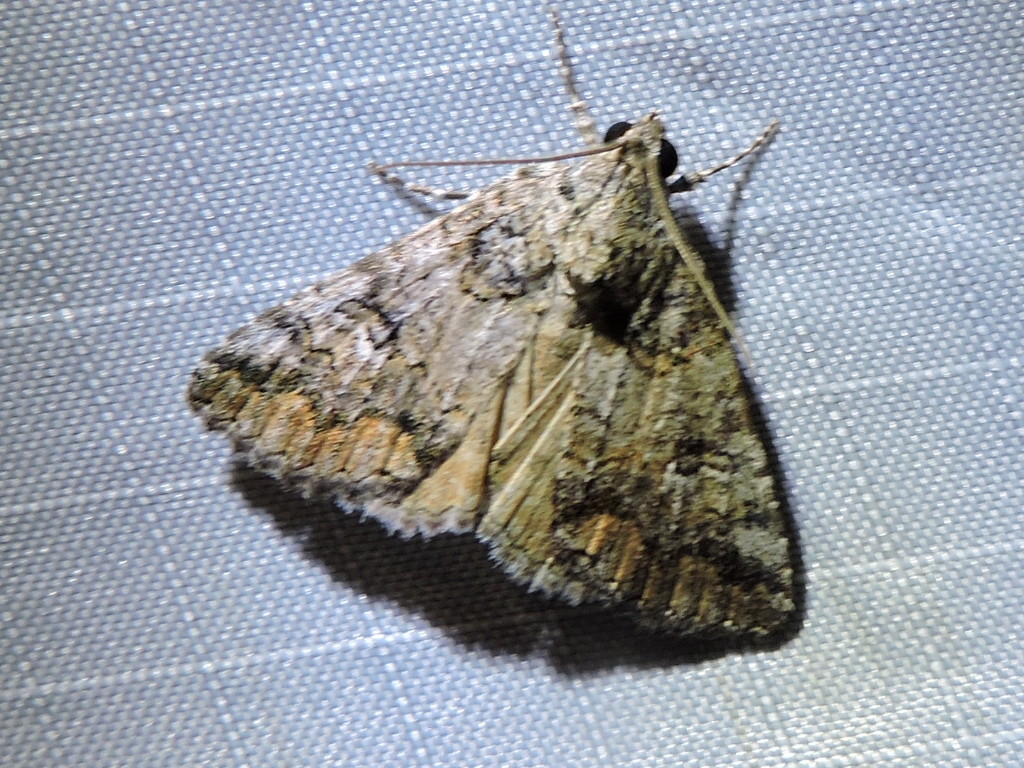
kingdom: Animalia
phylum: Arthropoda
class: Insecta
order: Lepidoptera
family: Erebidae
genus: Eubolina
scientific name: Eubolina impartialis
